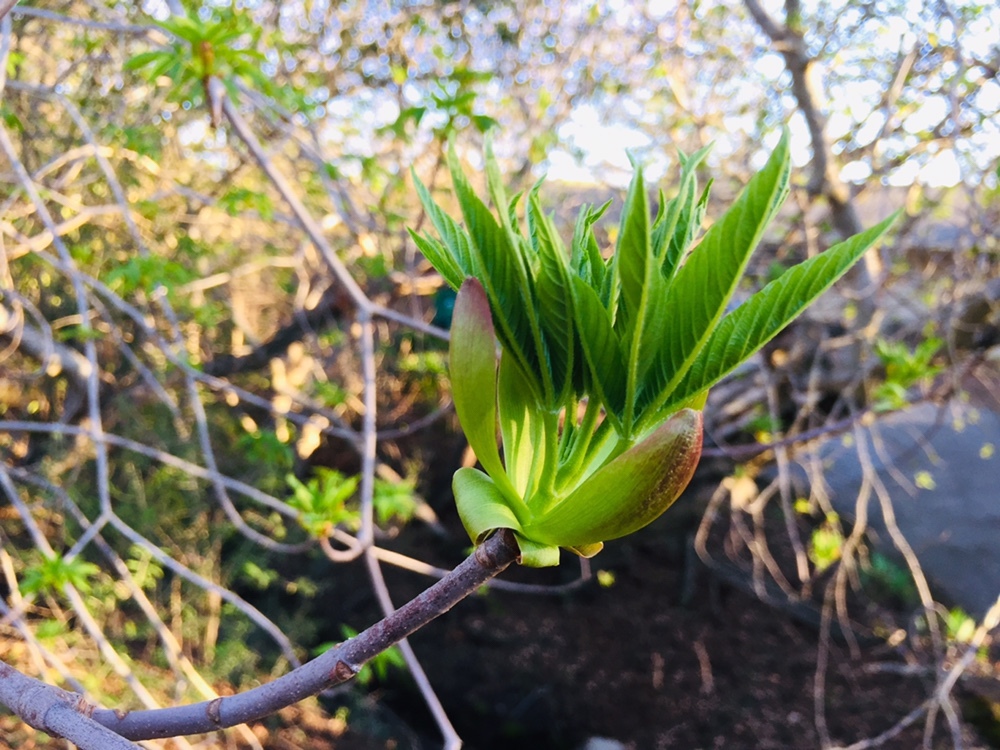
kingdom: Plantae
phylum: Tracheophyta
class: Magnoliopsida
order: Sapindales
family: Sapindaceae
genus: Aesculus
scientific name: Aesculus californica
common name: California buckeye
